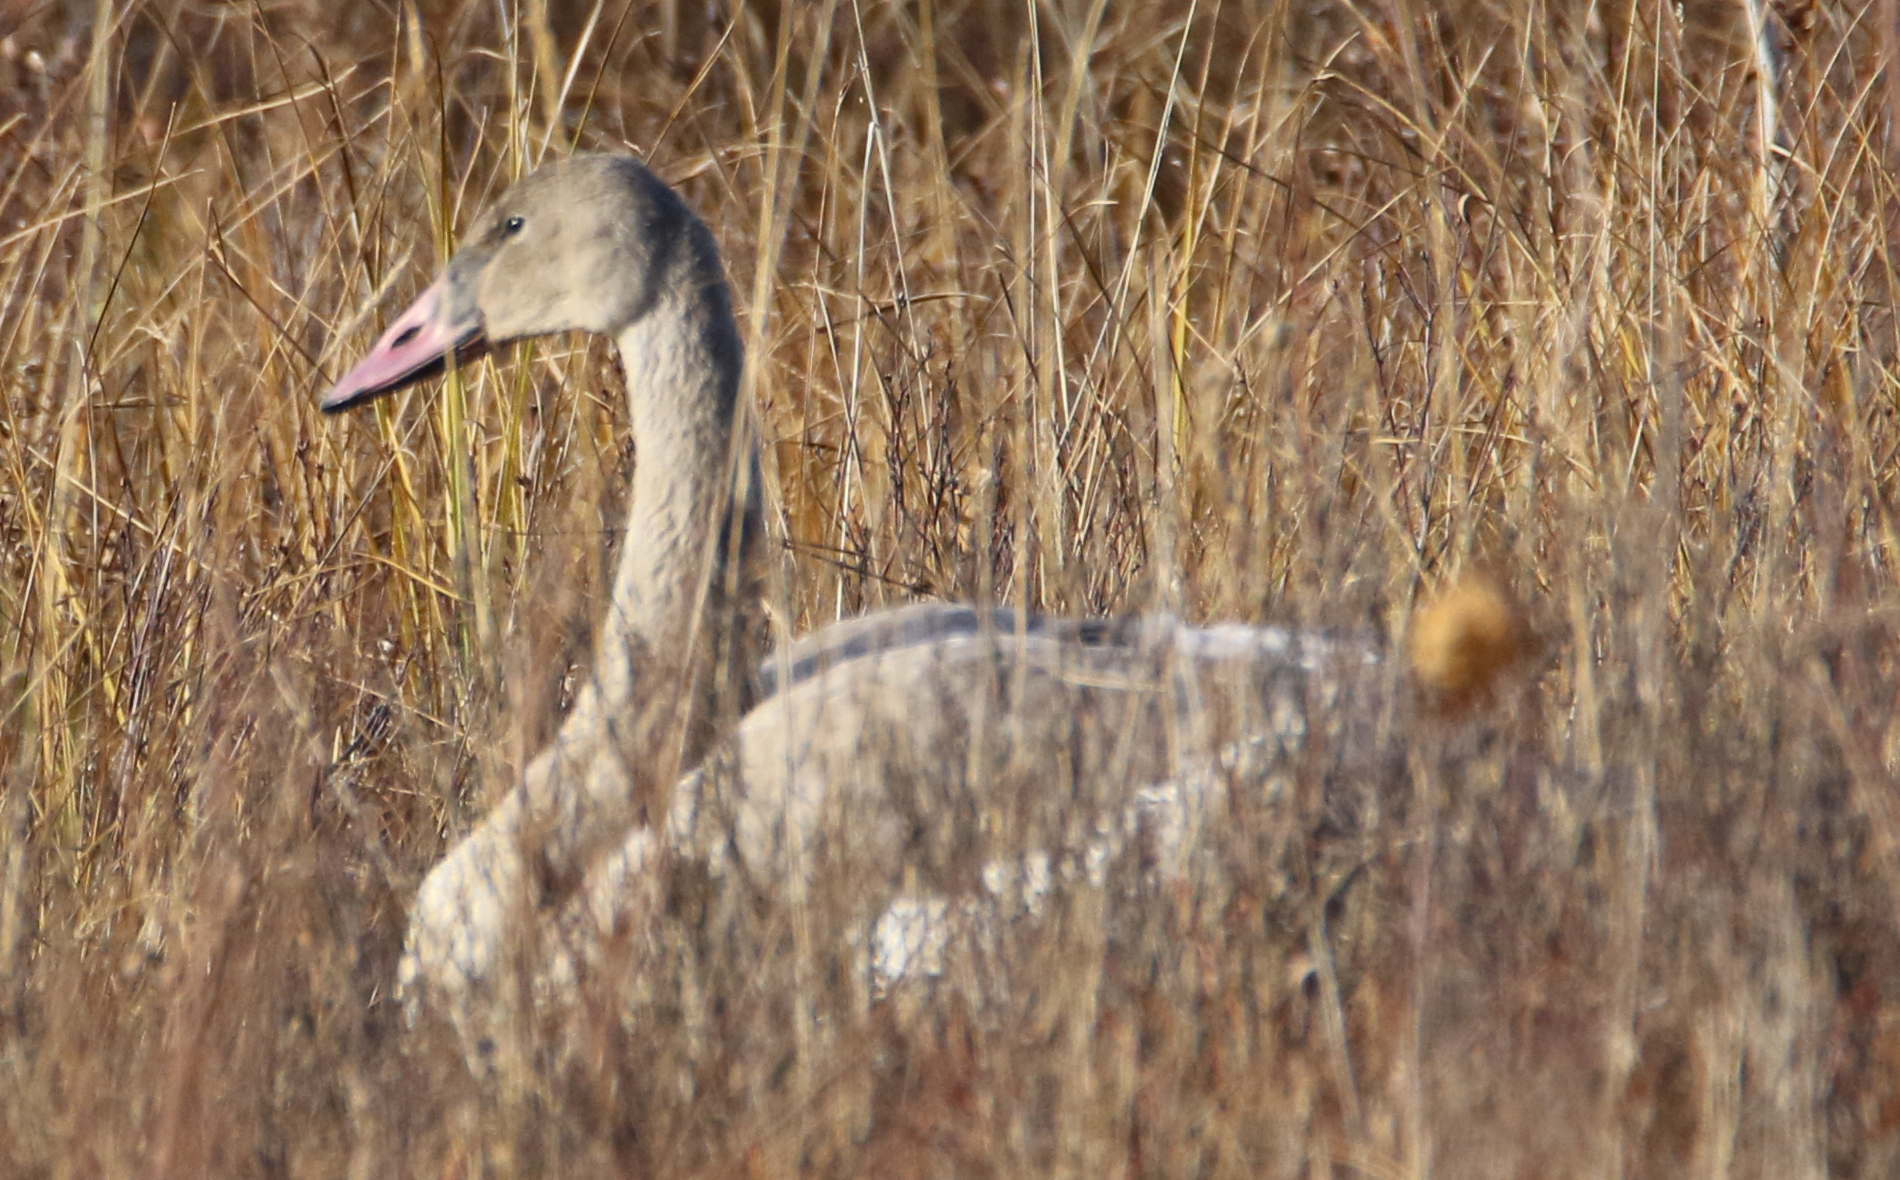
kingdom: Animalia
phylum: Chordata
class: Aves
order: Anseriformes
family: Anatidae
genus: Cygnus
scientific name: Cygnus buccinator
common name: Trumpeter swan
